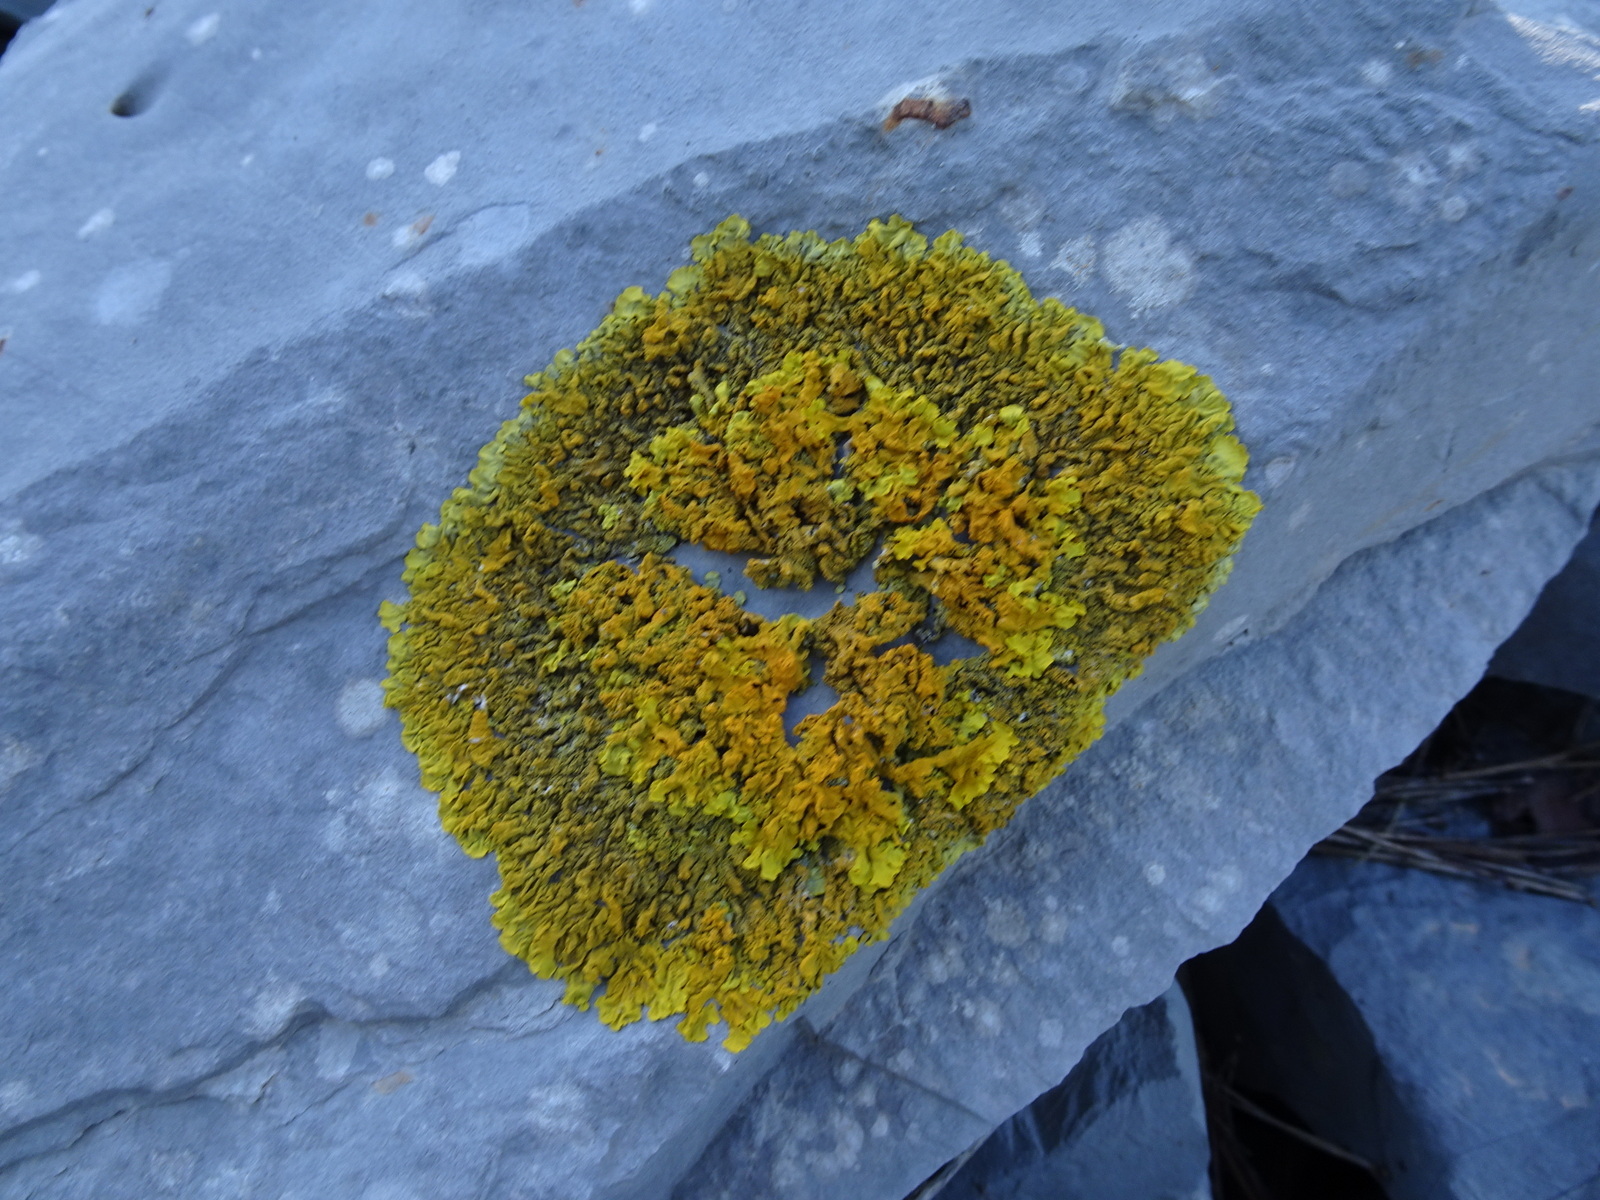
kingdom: Fungi
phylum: Ascomycota
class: Lecanoromycetes
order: Teloschistales
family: Teloschistaceae
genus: Xanthoria
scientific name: Xanthoria calcicola
